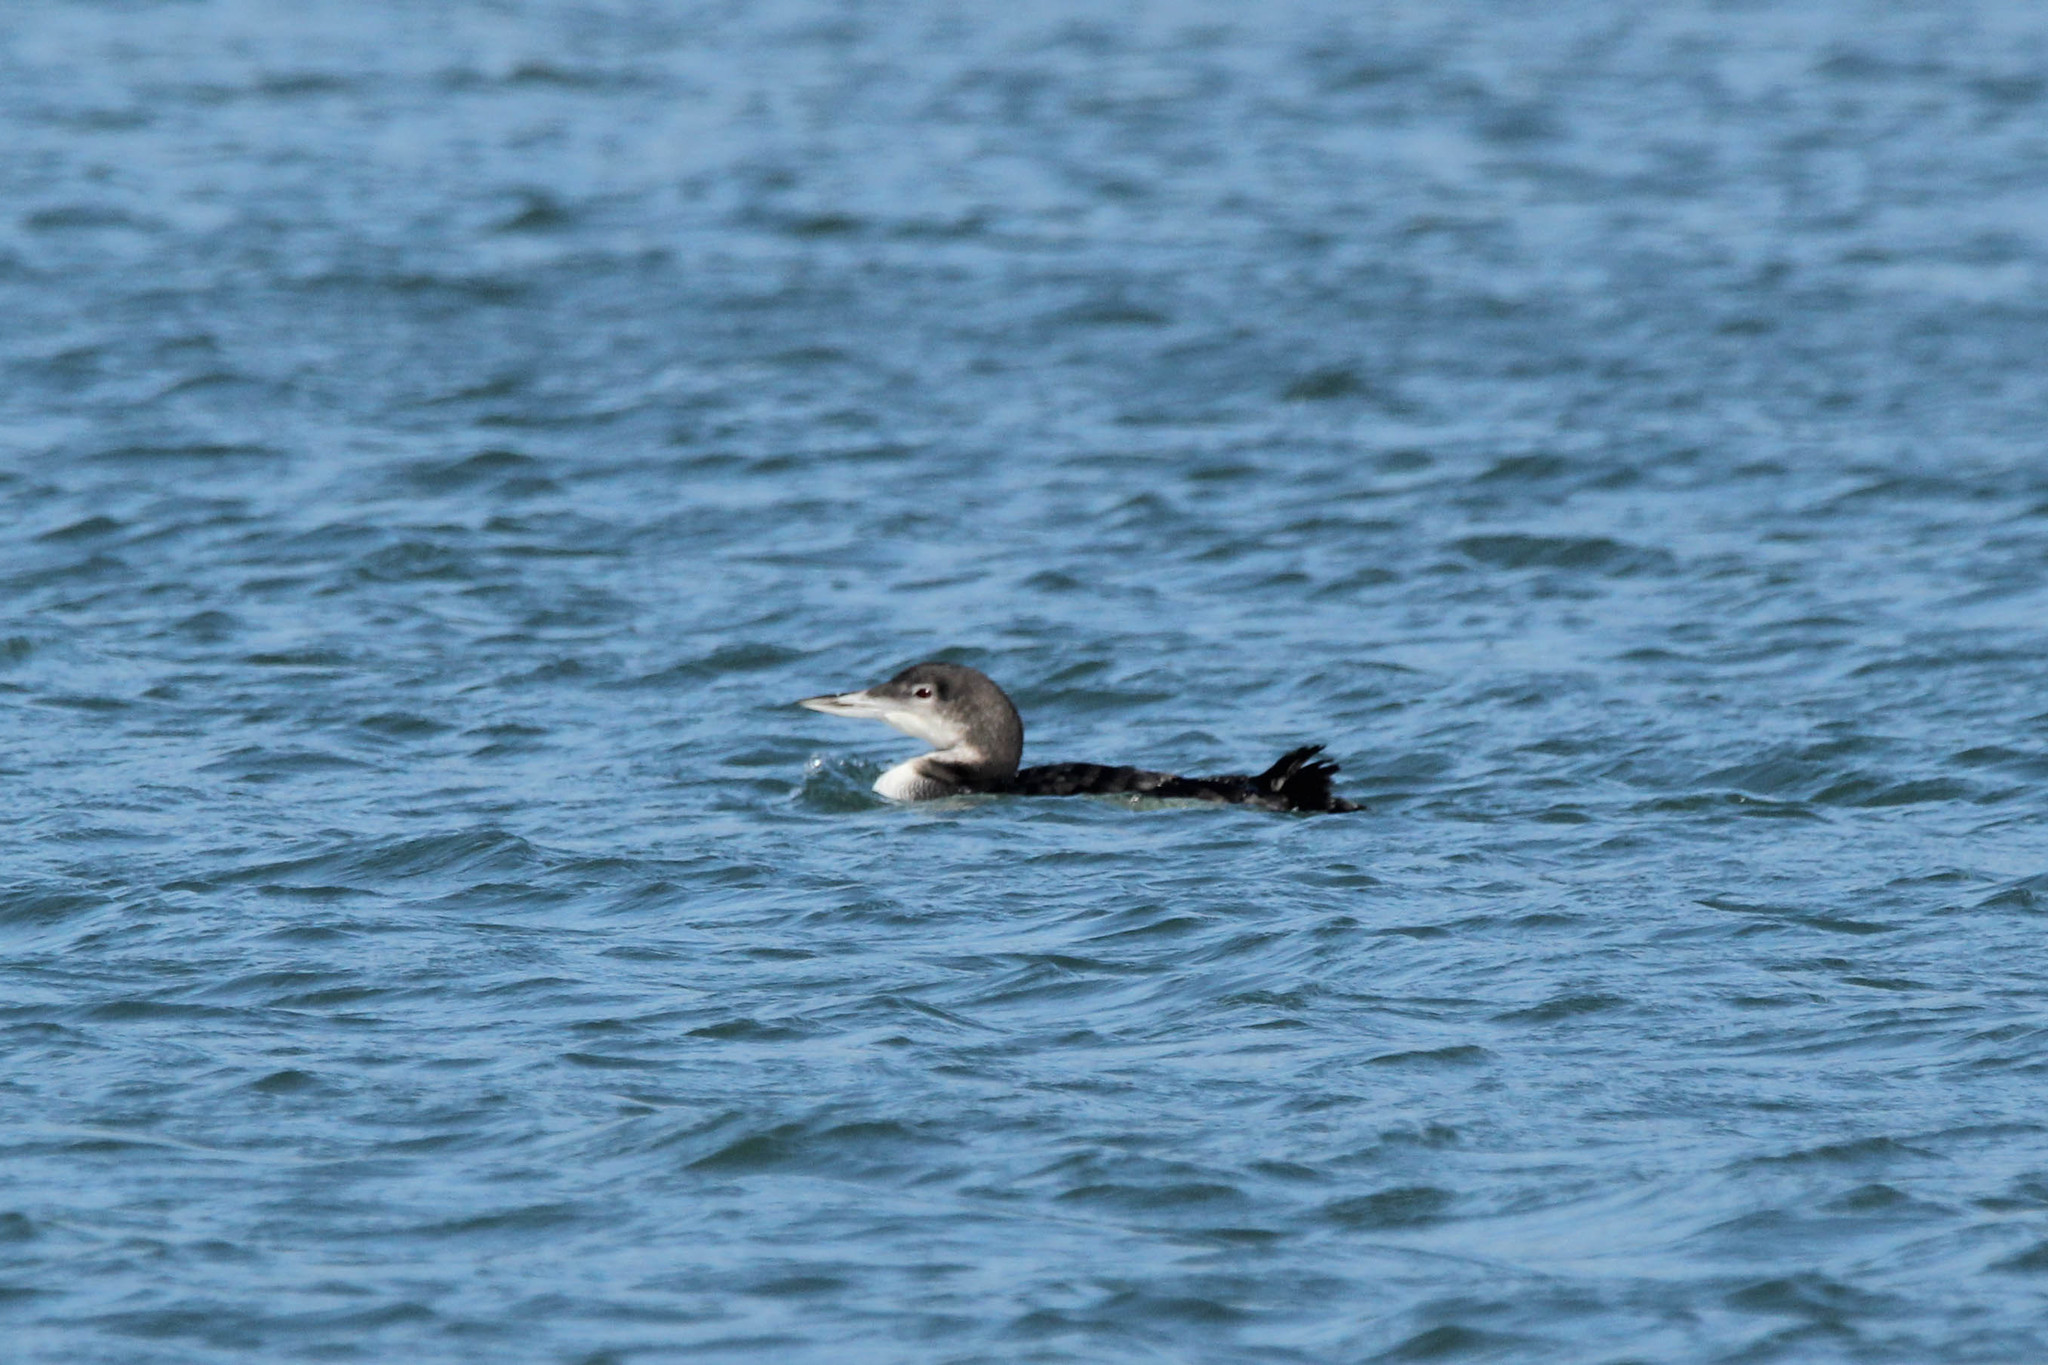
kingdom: Animalia
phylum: Chordata
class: Aves
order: Gaviiformes
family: Gaviidae
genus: Gavia
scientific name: Gavia immer
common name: Common loon
